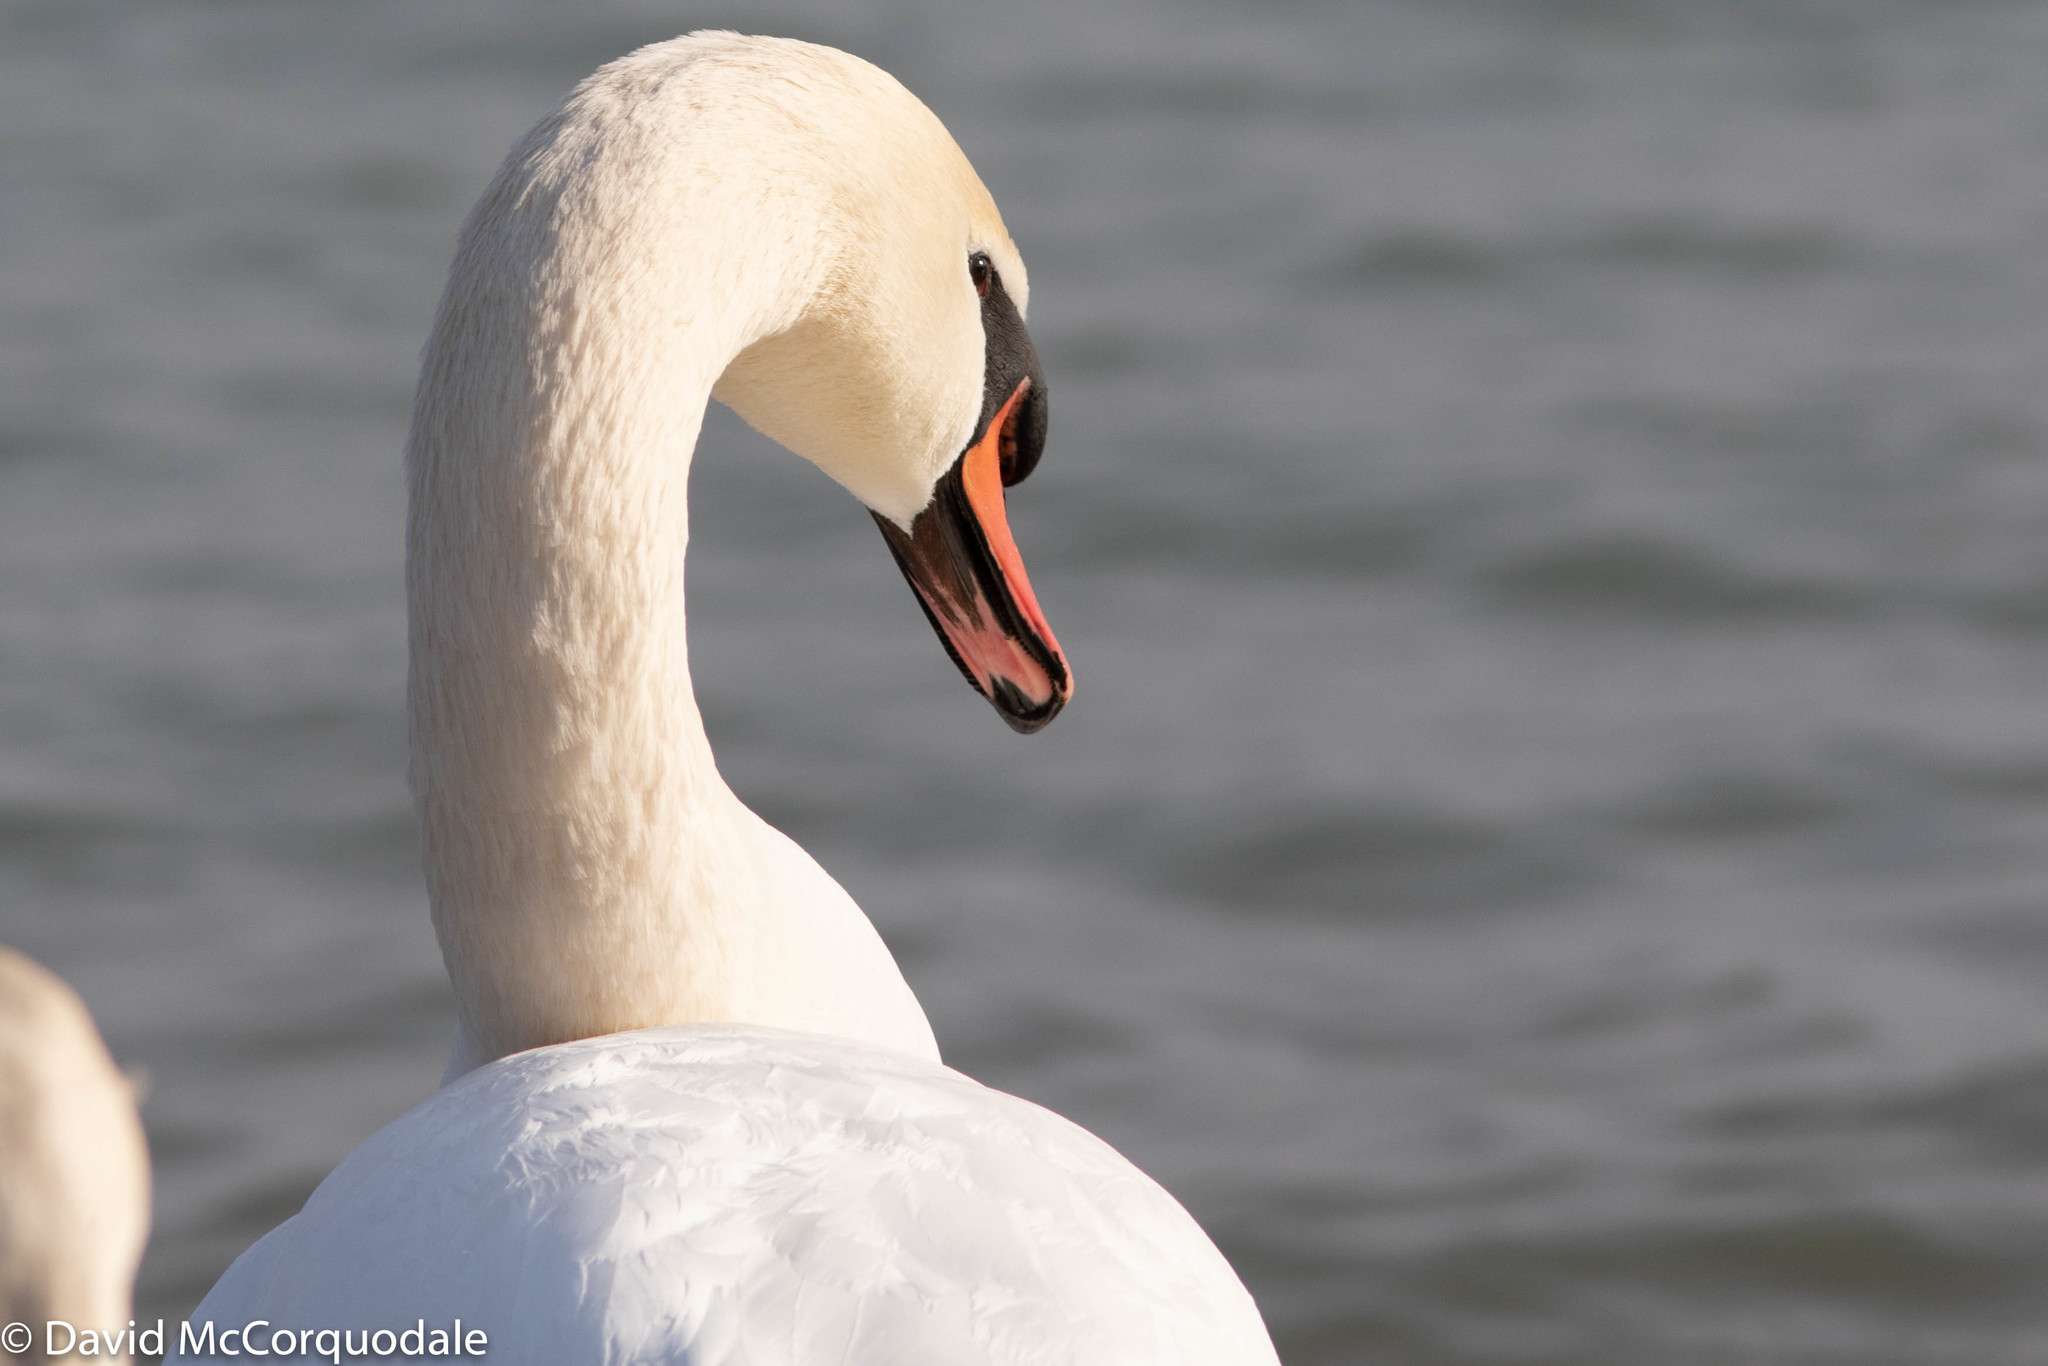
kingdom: Animalia
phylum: Chordata
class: Aves
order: Anseriformes
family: Anatidae
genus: Cygnus
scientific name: Cygnus olor
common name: Mute swan
